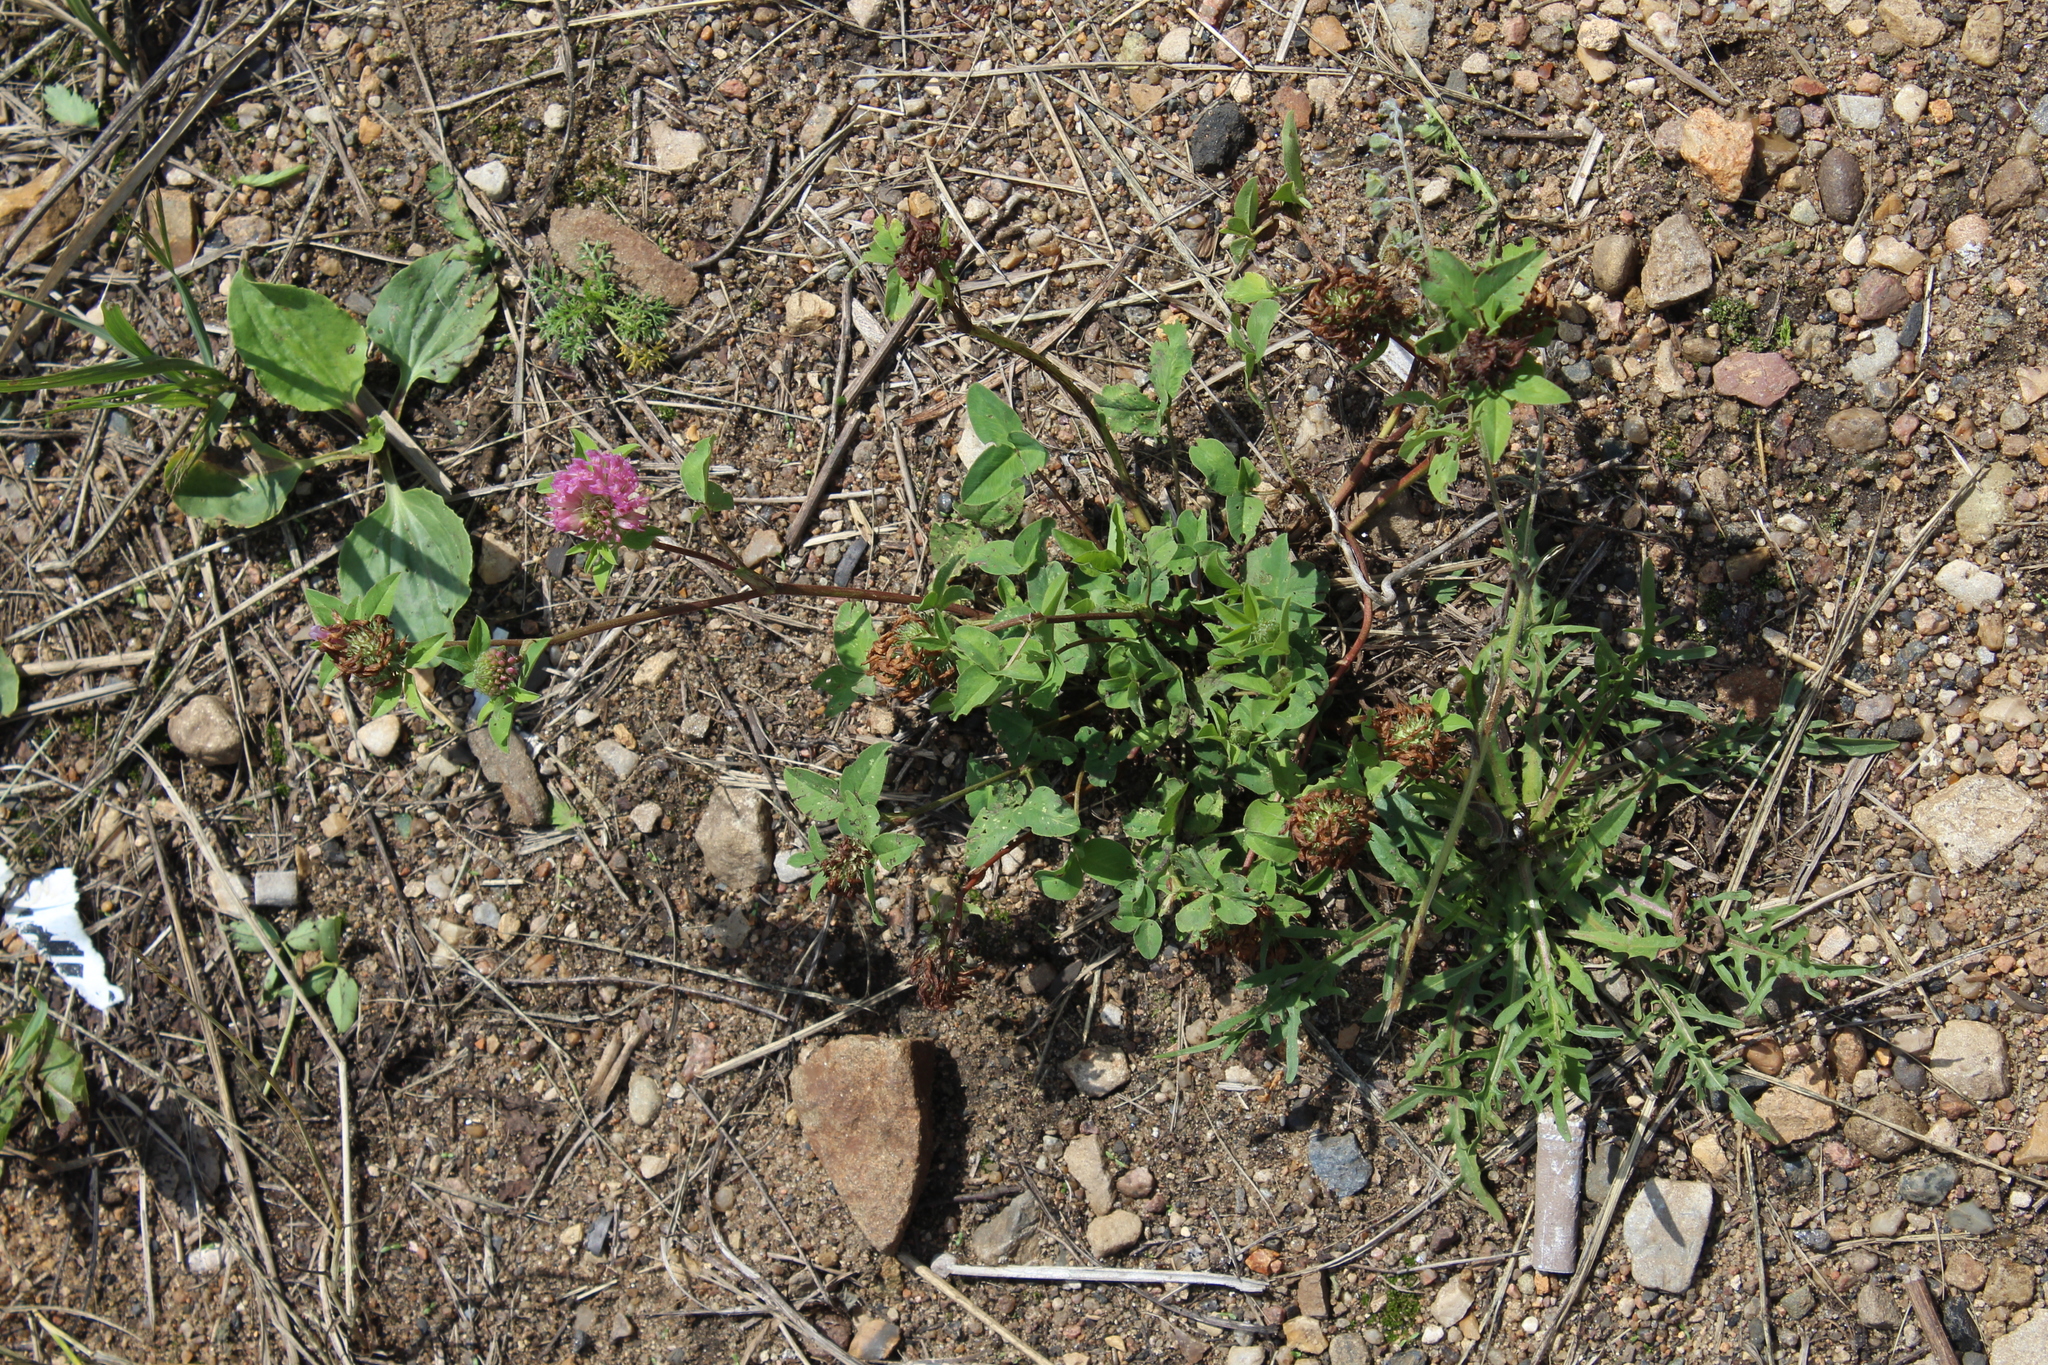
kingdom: Plantae
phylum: Tracheophyta
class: Magnoliopsida
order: Fabales
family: Fabaceae
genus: Trifolium
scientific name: Trifolium pratense
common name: Red clover
